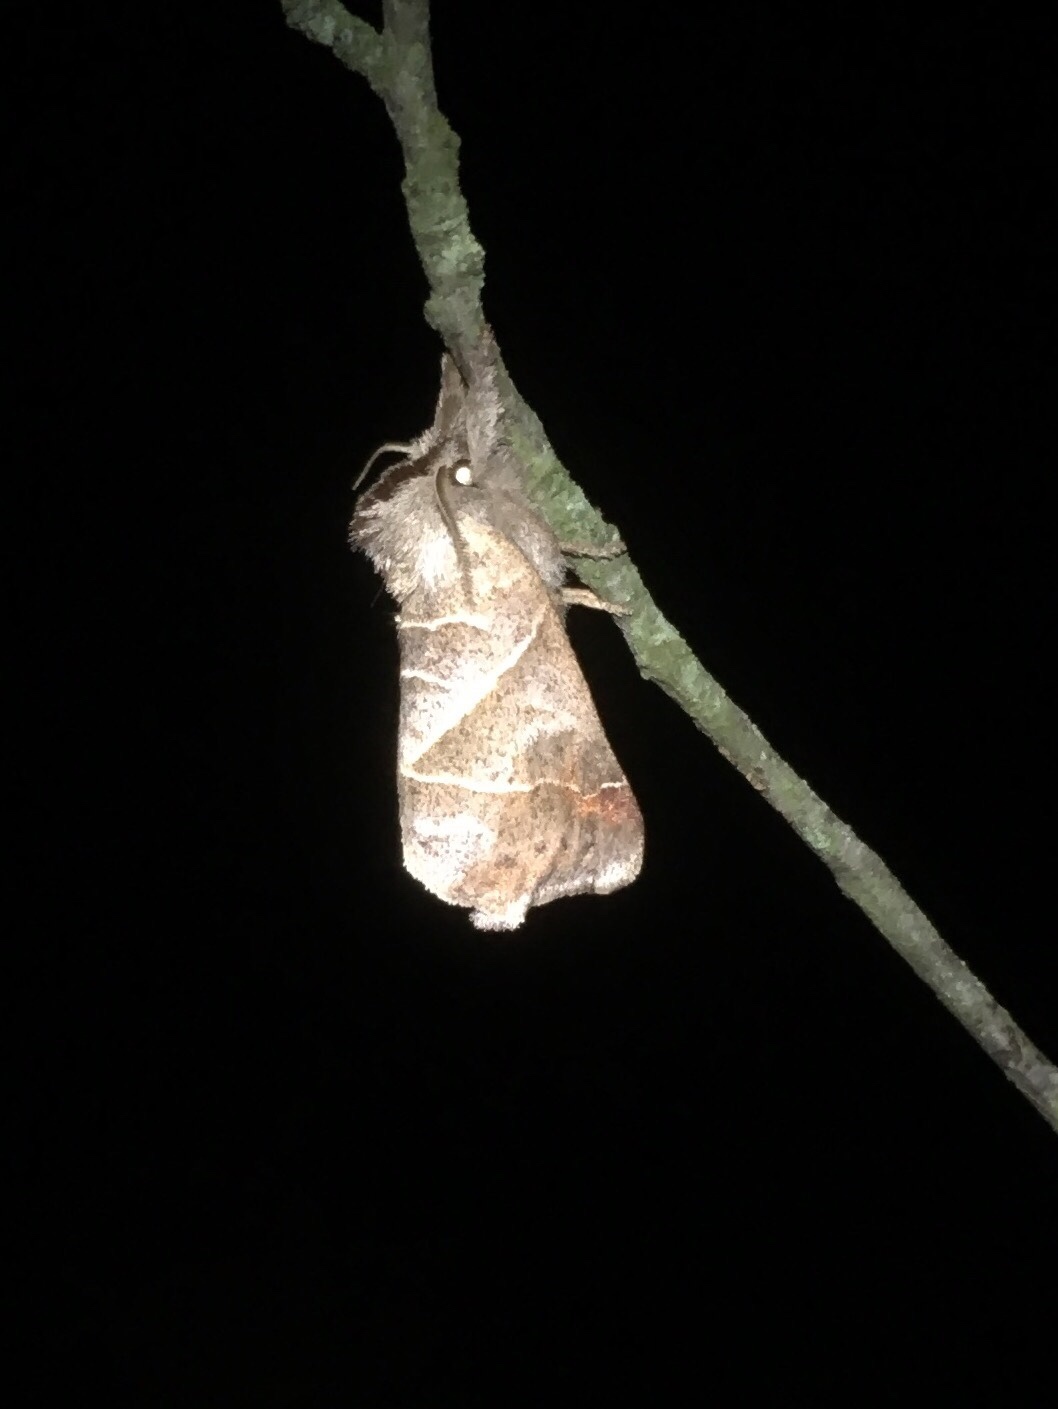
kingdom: Animalia
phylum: Arthropoda
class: Insecta
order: Lepidoptera
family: Notodontidae
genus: Clostera
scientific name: Clostera apicalis
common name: Apical prominent
